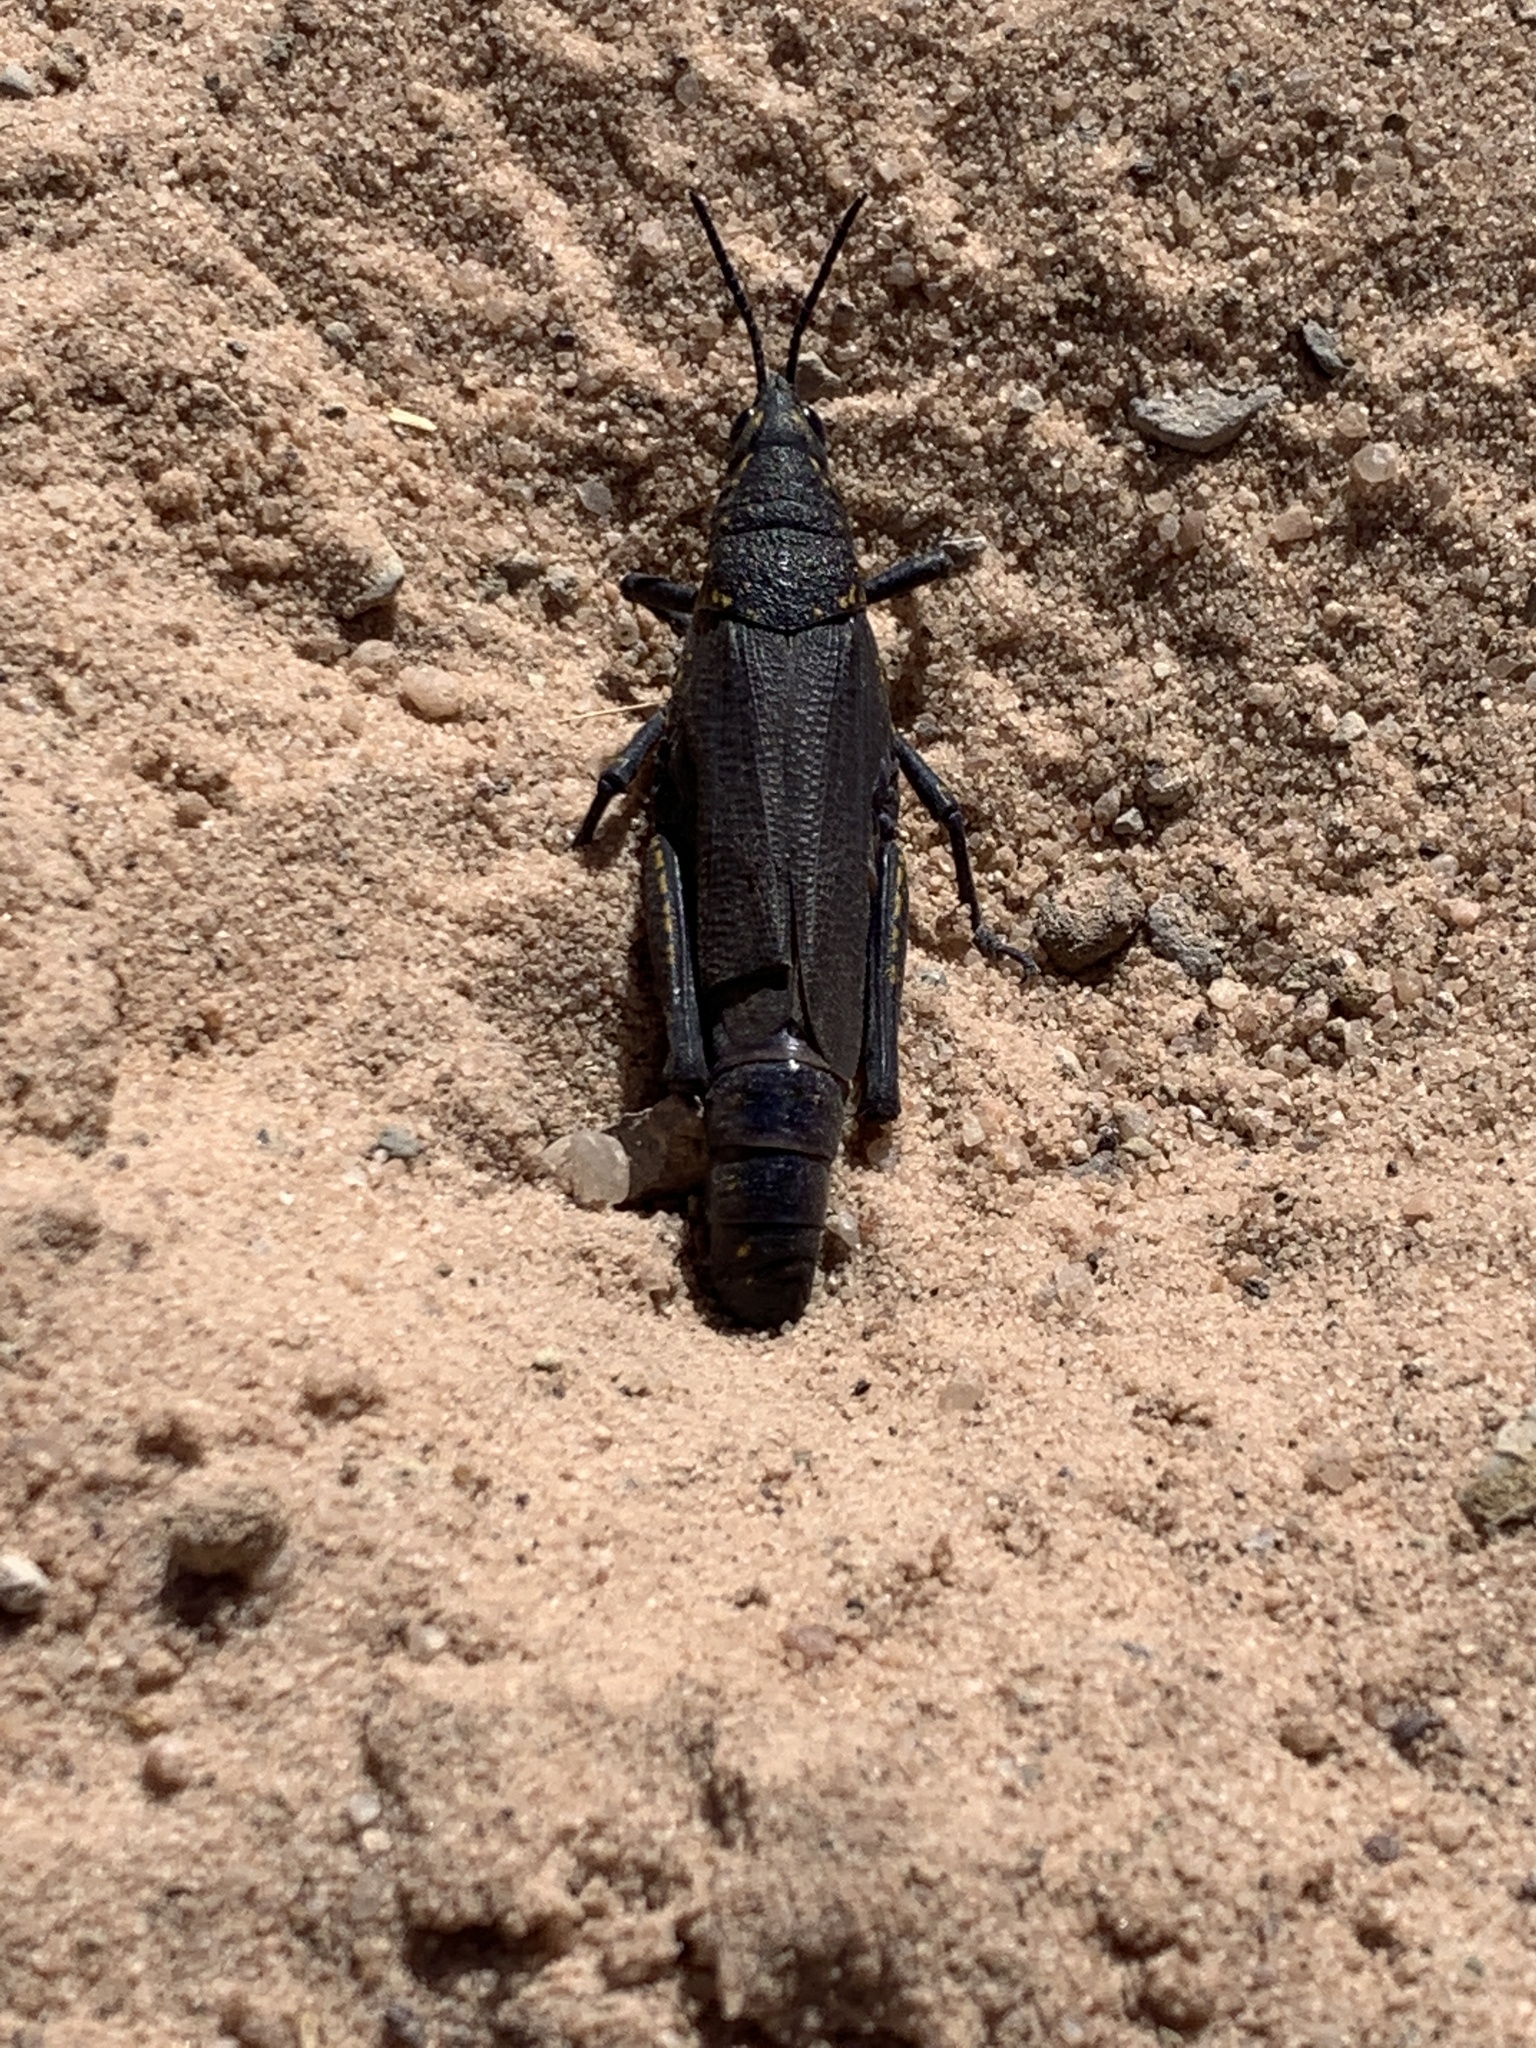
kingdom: Animalia
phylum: Arthropoda
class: Insecta
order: Orthoptera
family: Pyrgomorphidae
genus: Poekilocerus
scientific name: Poekilocerus bufonius
